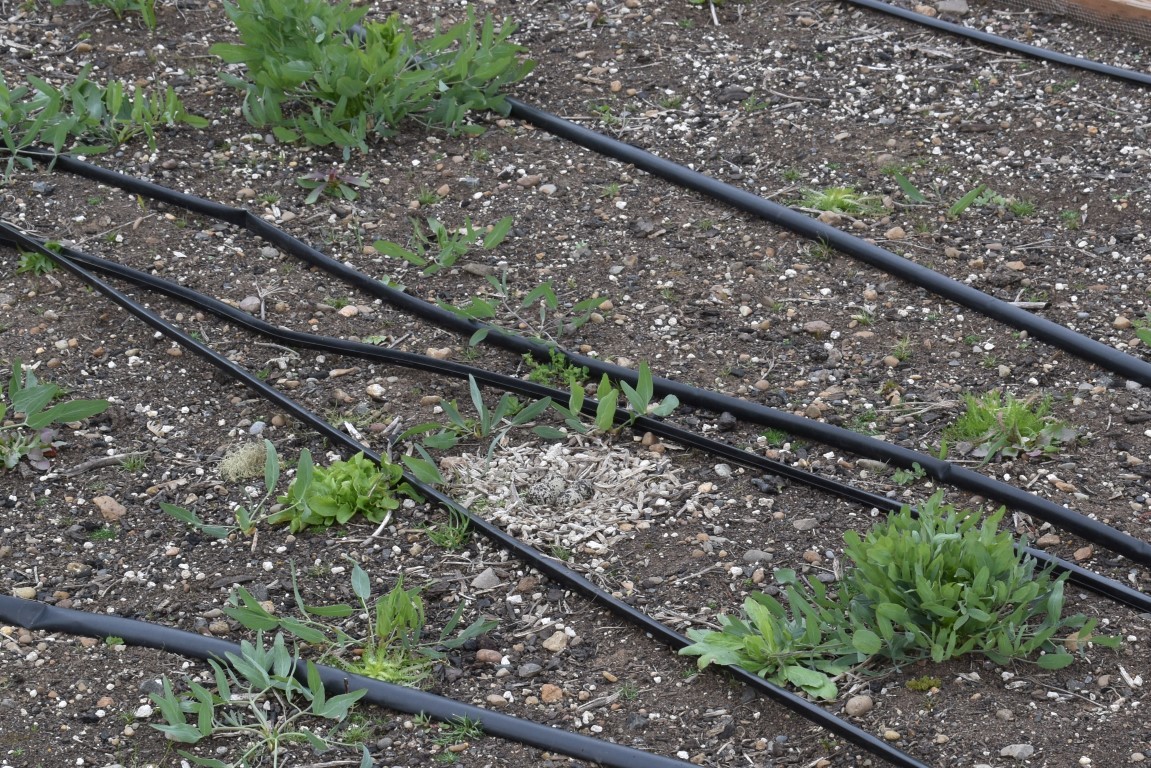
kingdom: Animalia
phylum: Chordata
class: Aves
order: Charadriiformes
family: Charadriidae
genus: Charadrius
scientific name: Charadrius vociferus
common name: Killdeer
